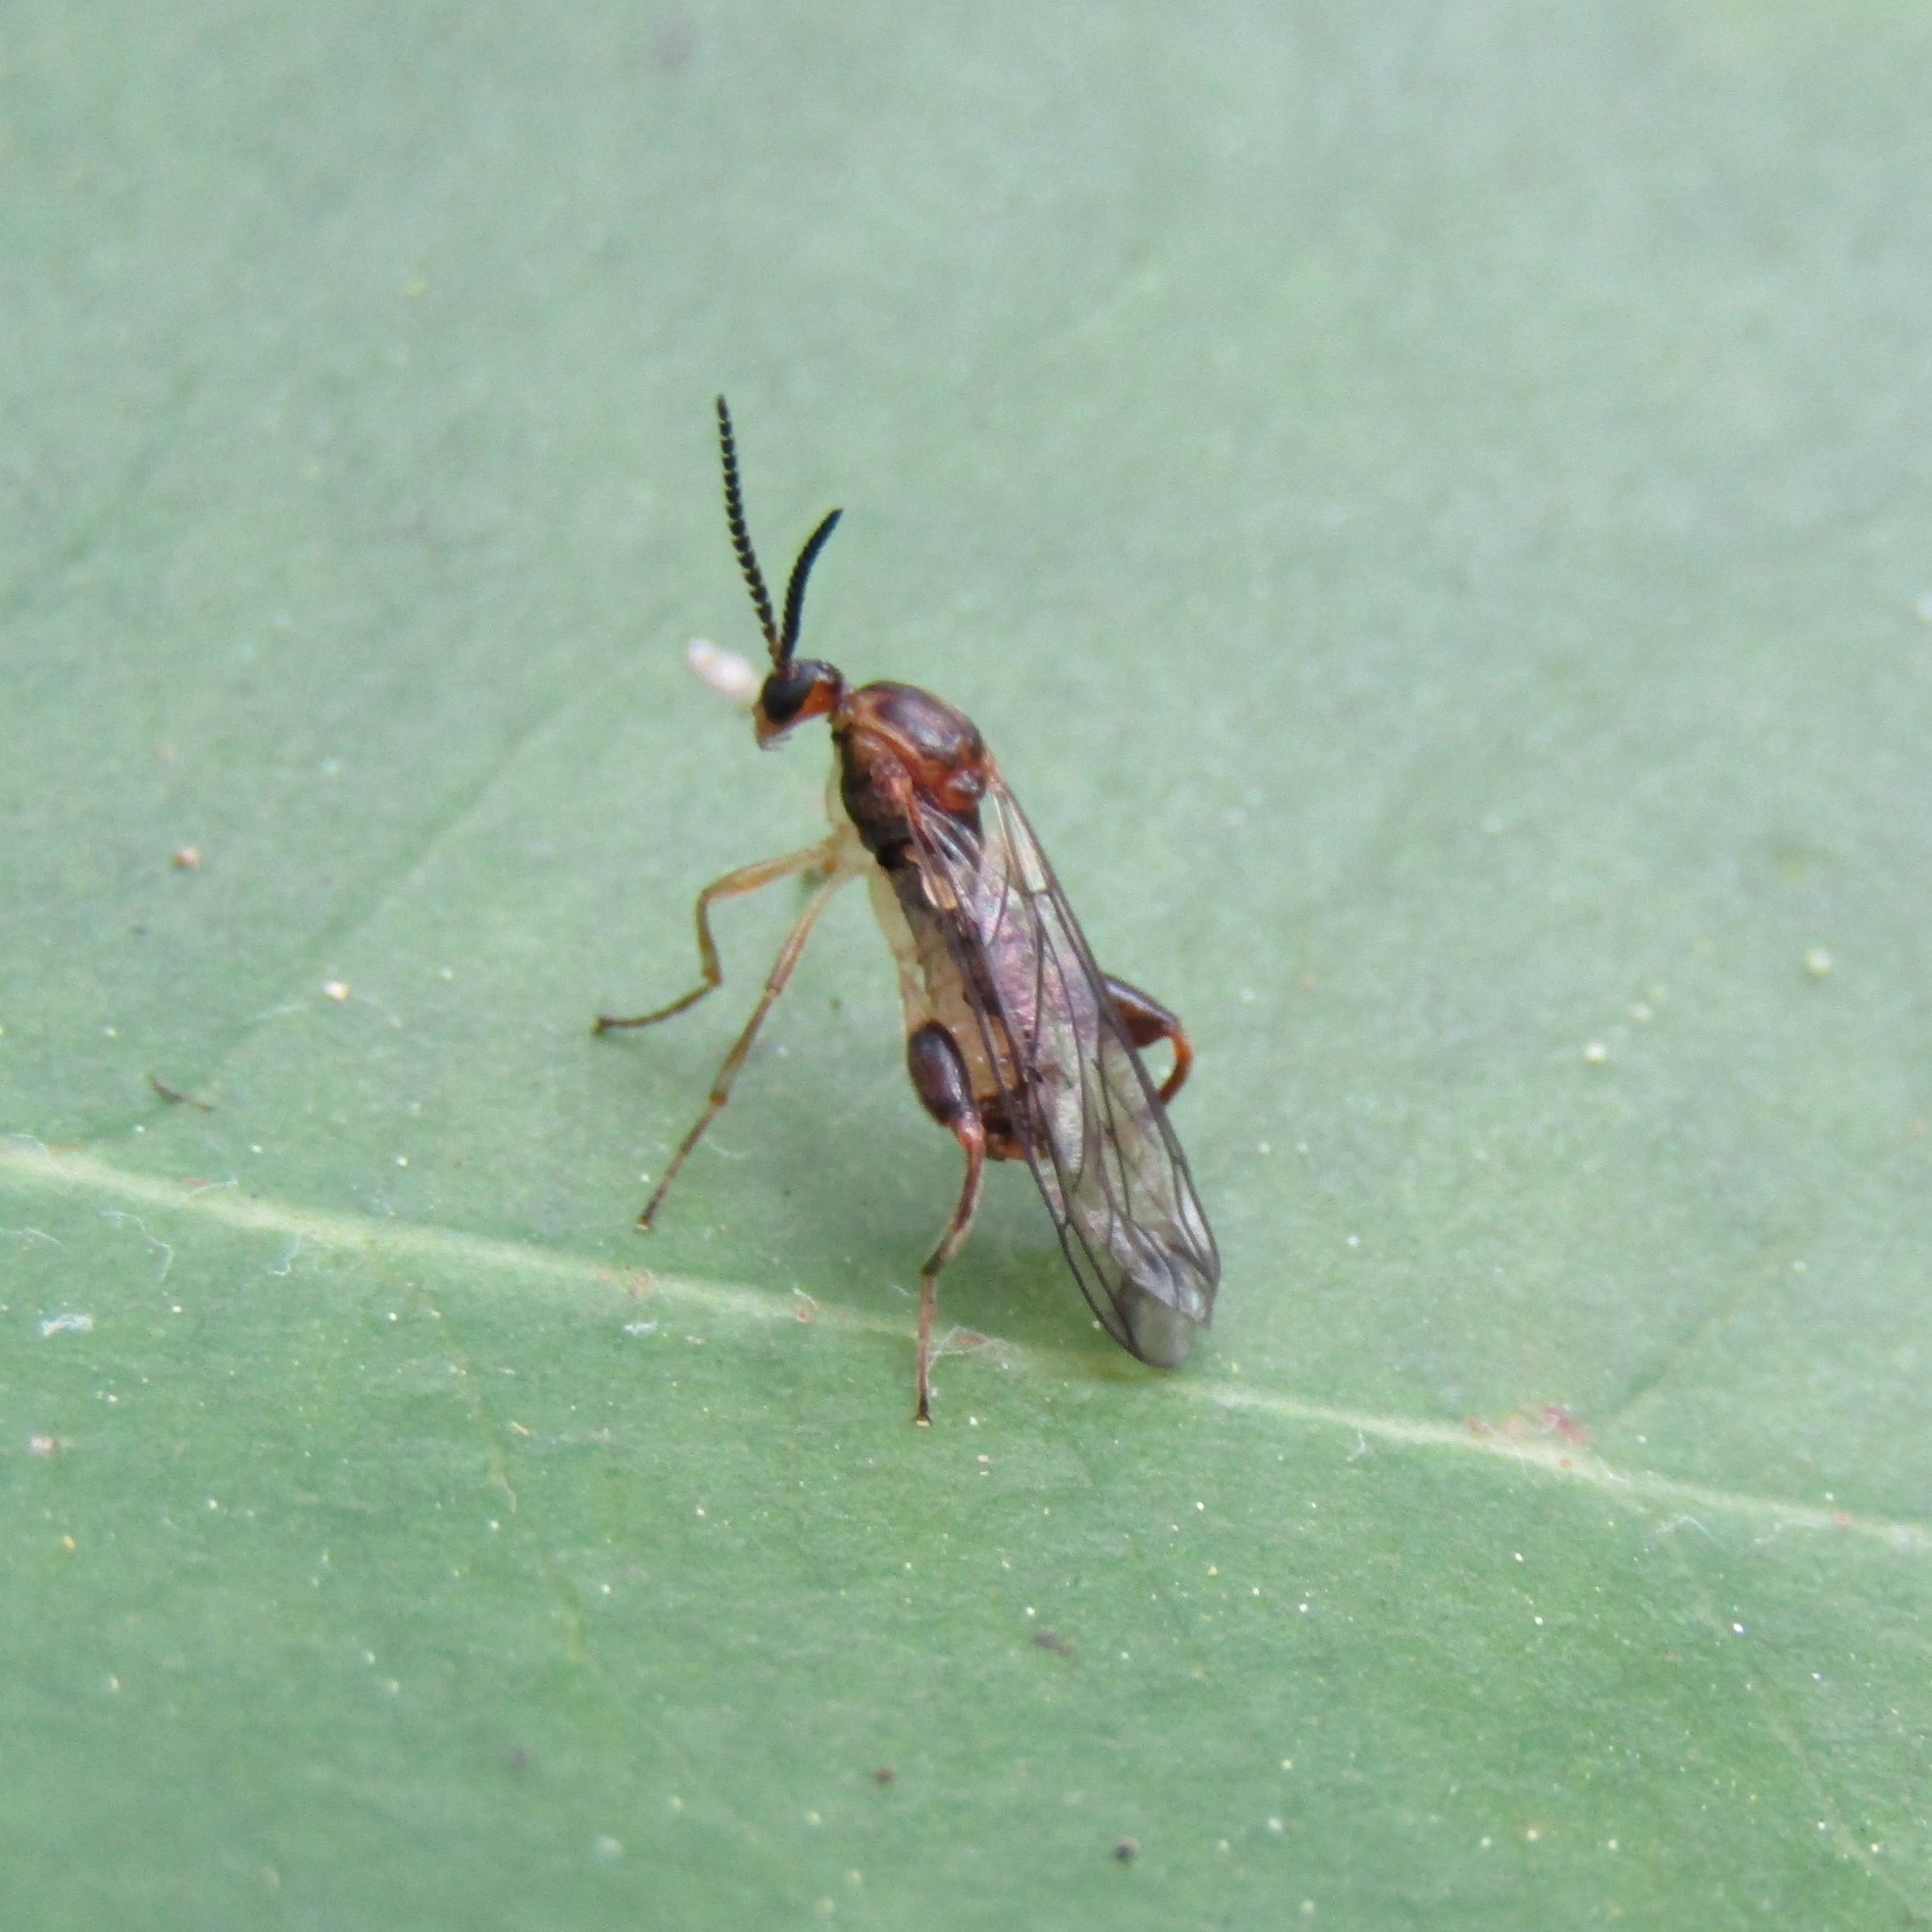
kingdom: Animalia
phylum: Arthropoda
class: Insecta
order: Diptera
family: Canthyloscelididae
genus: Canthyloscelis
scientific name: Canthyloscelis antennata
